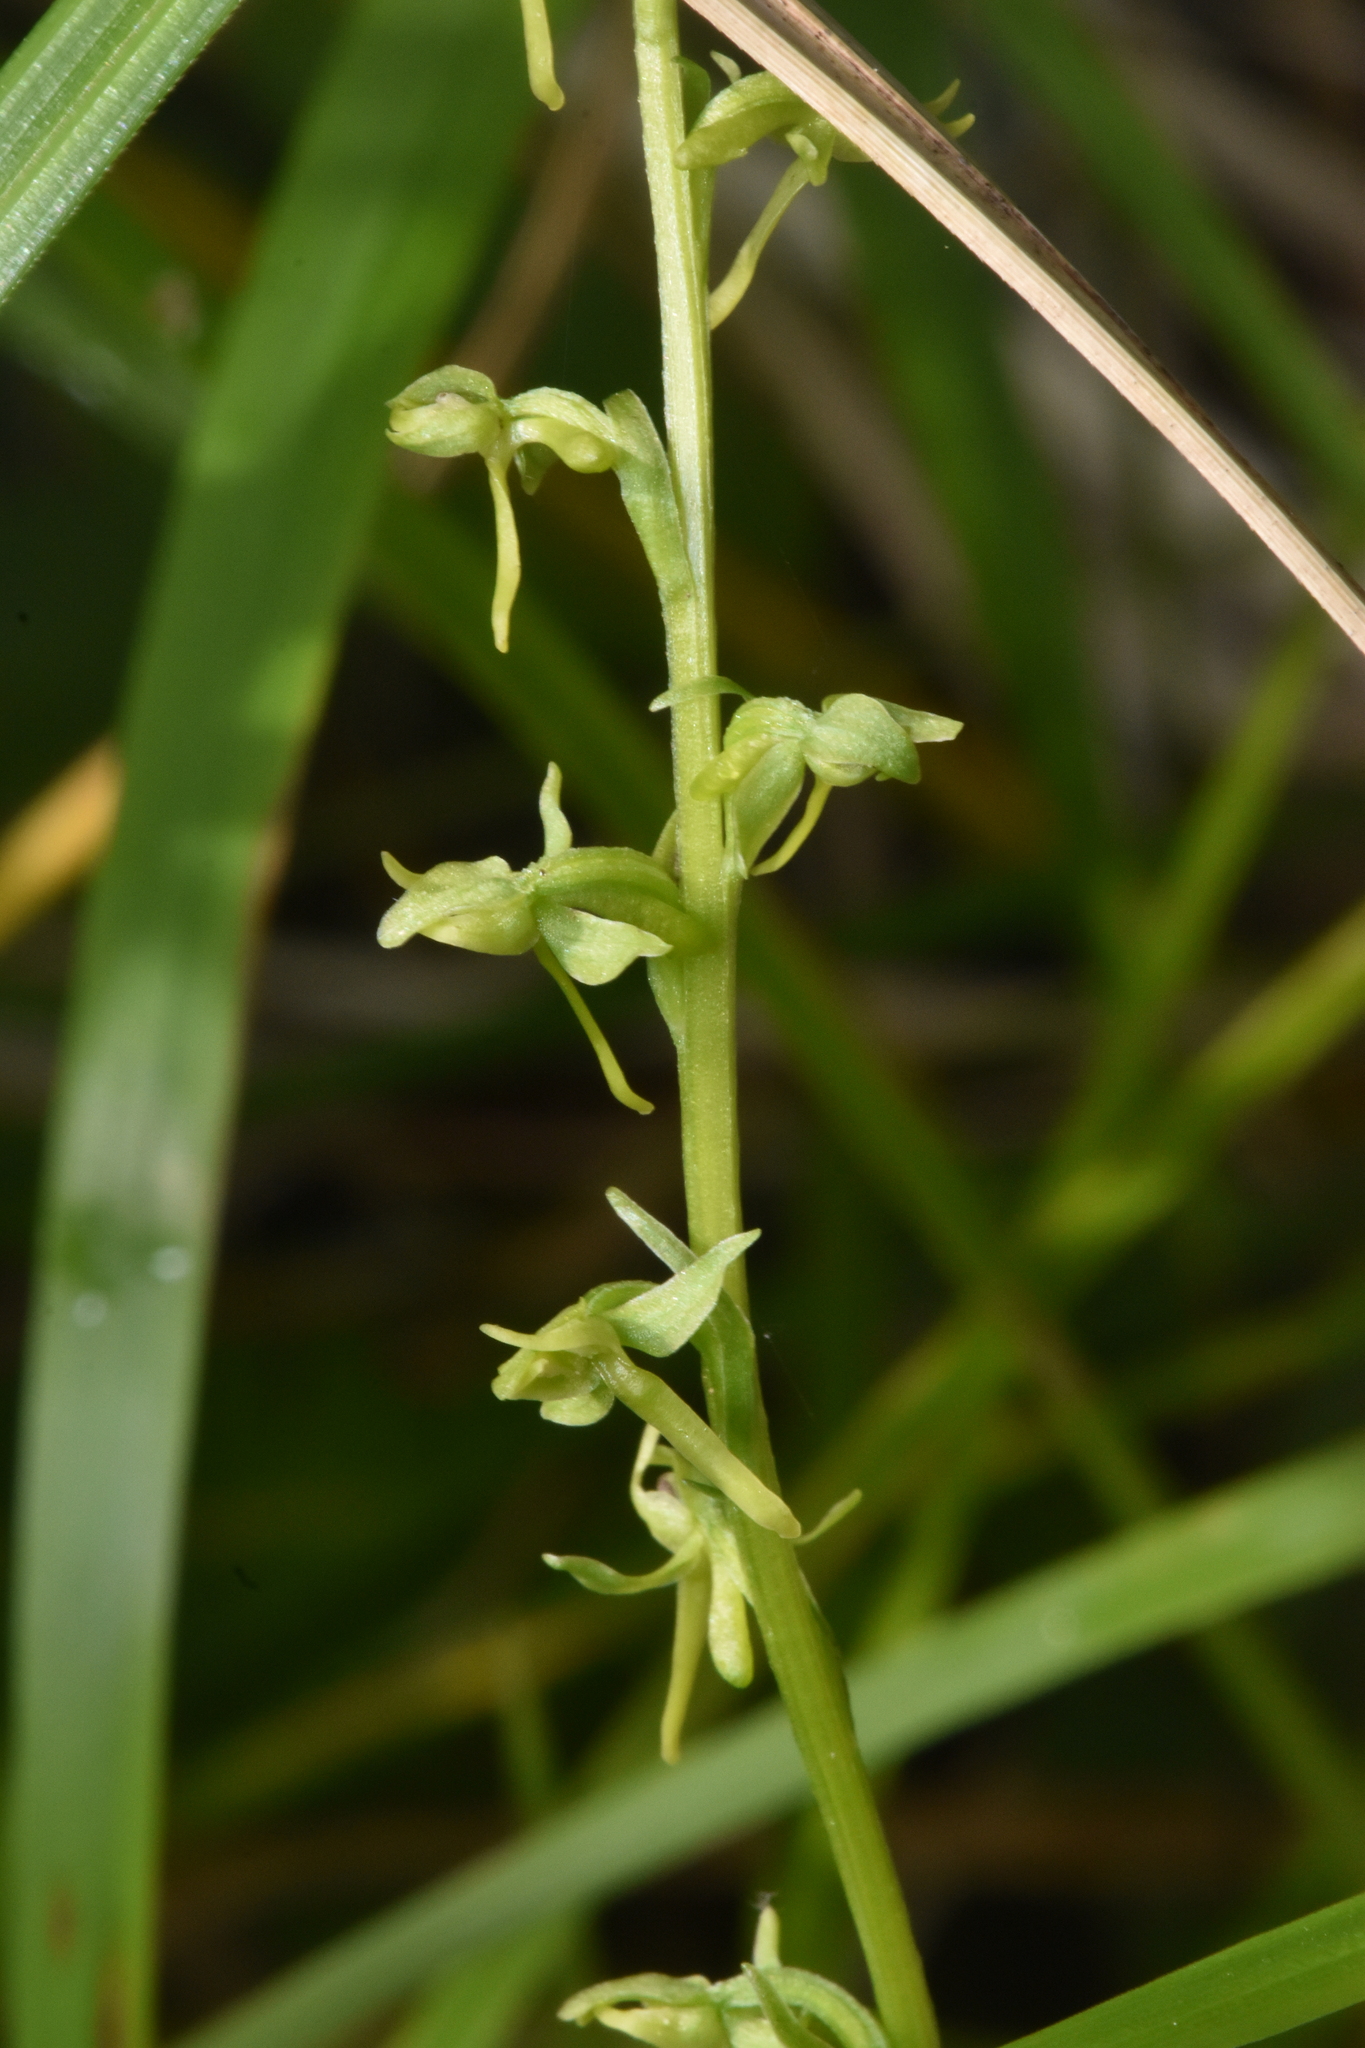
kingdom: Plantae
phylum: Tracheophyta
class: Liliopsida
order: Asparagales
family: Orchidaceae
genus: Platanthera
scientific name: Platanthera stricta
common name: Slender bog orchid
